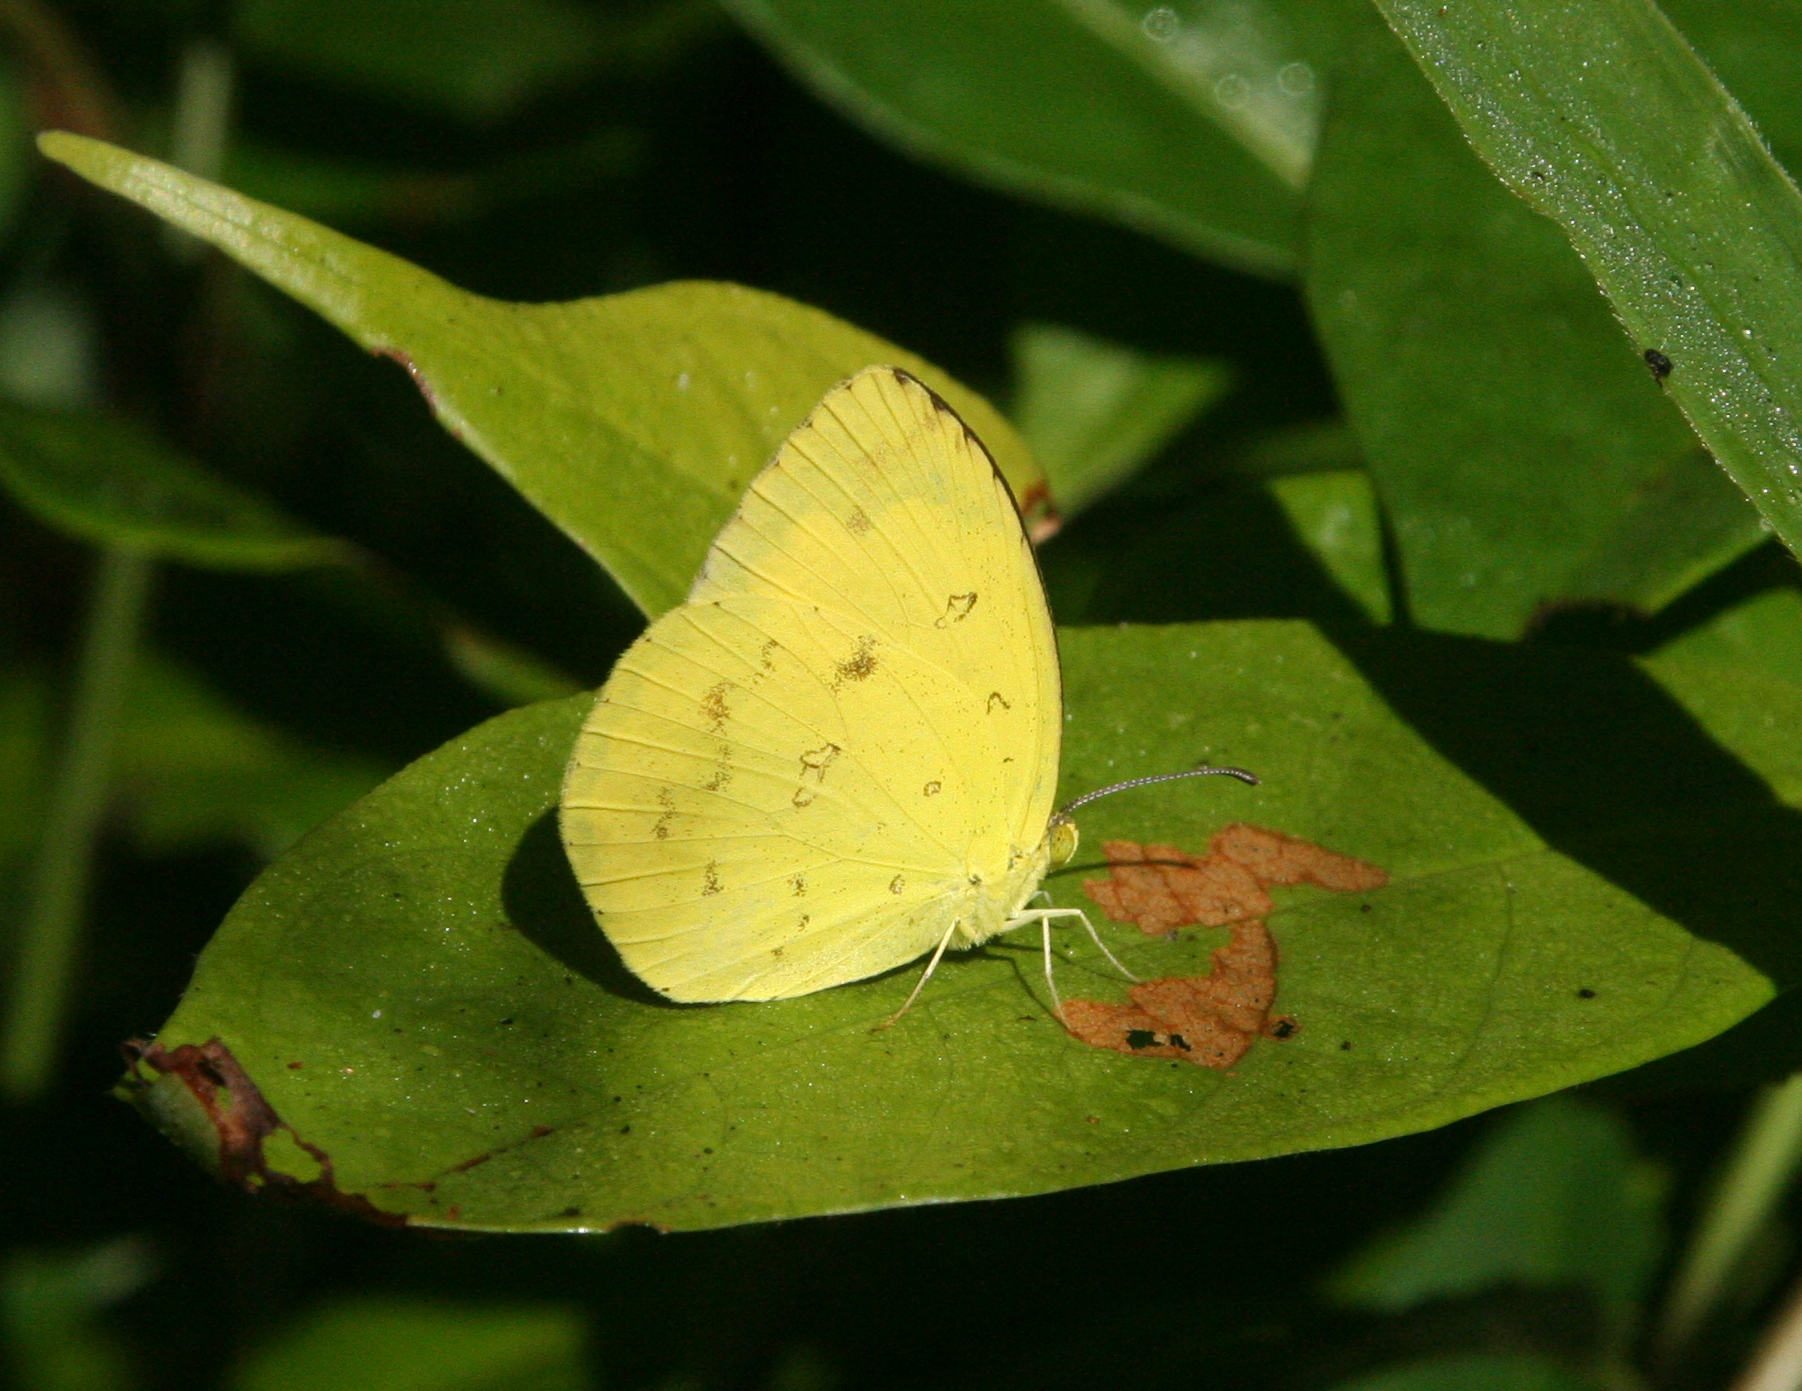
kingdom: Animalia
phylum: Arthropoda
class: Insecta
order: Lepidoptera
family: Pieridae
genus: Eurema
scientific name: Eurema hecabe
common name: Pale grass yellow
